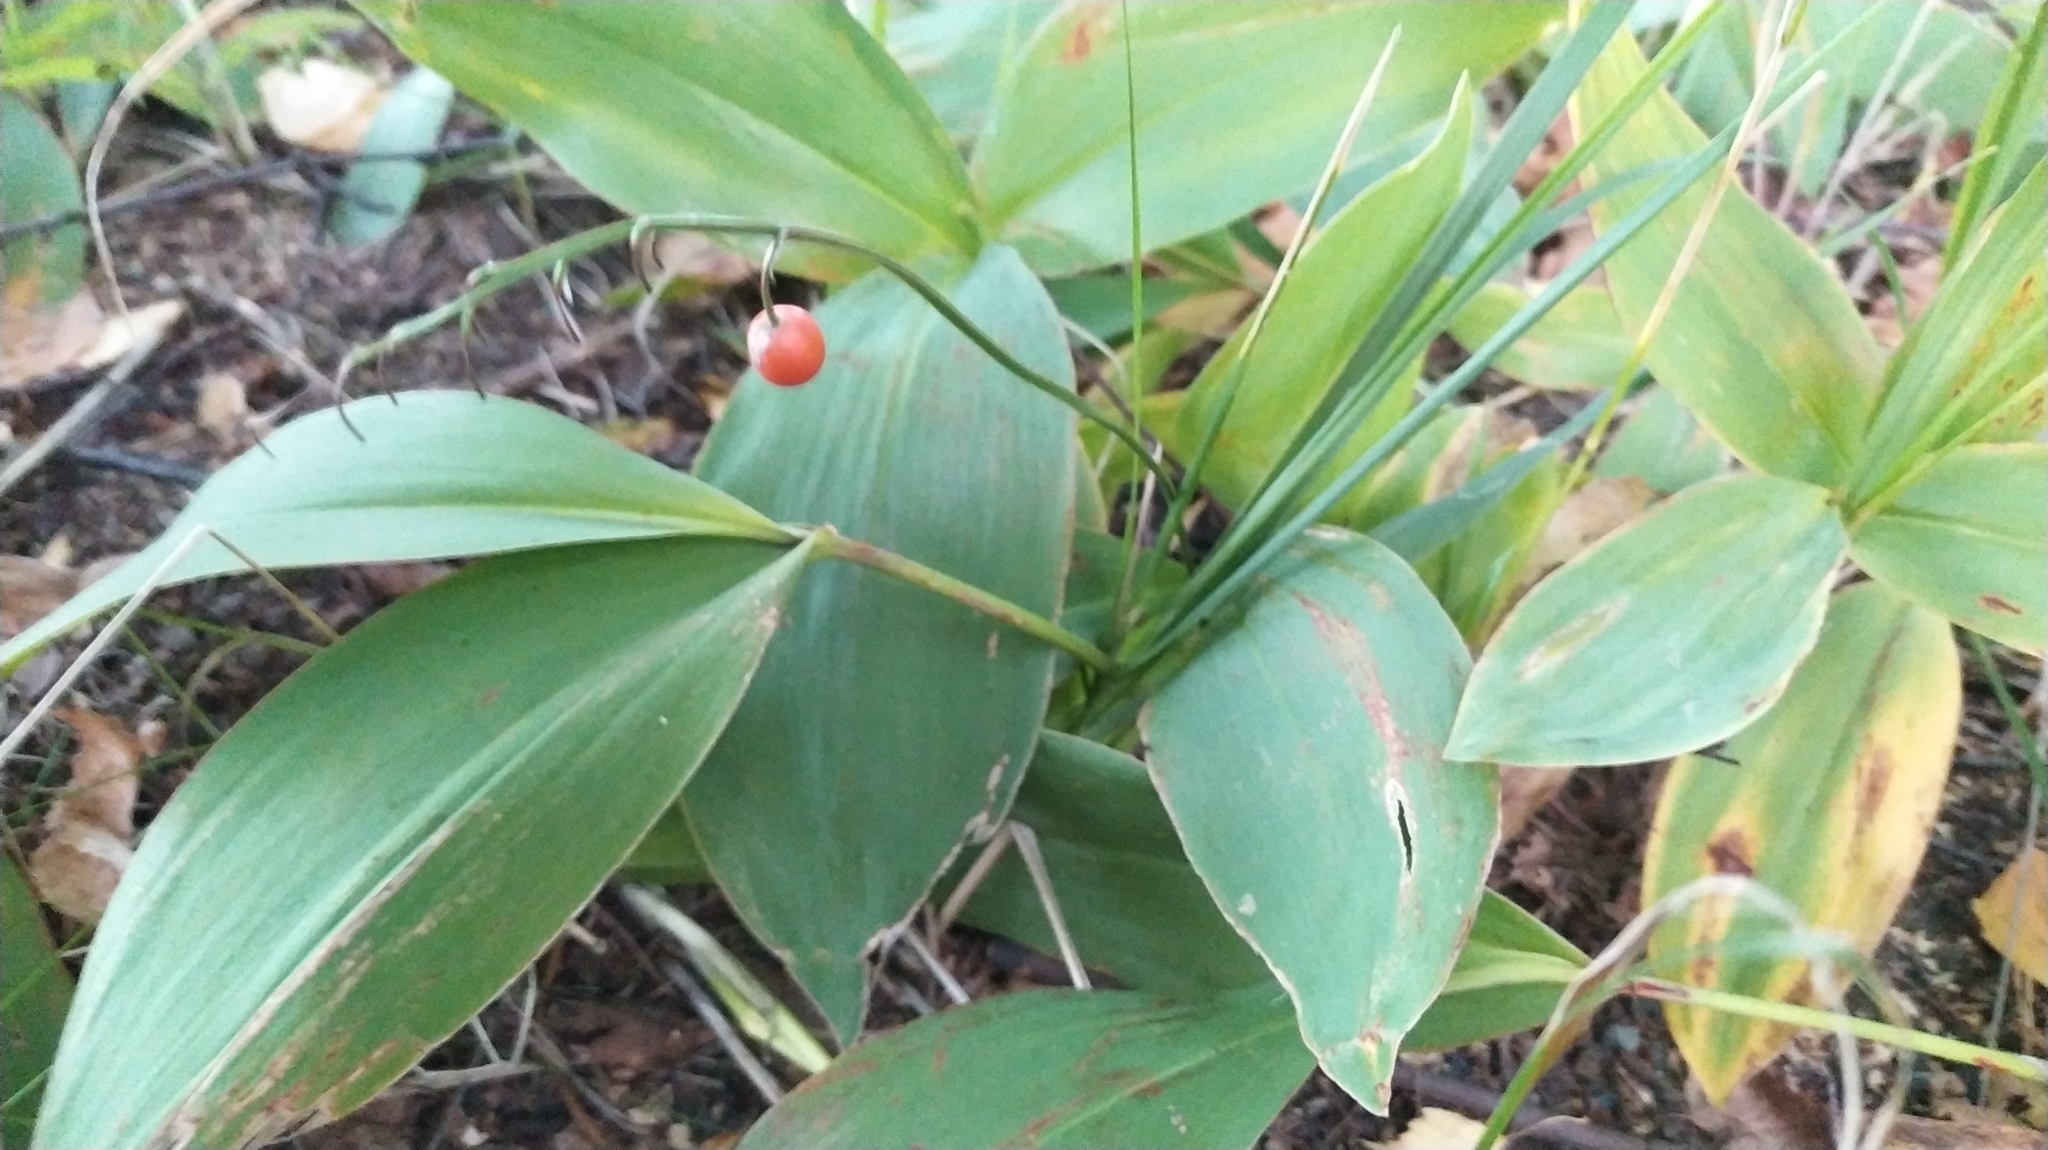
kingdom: Plantae
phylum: Tracheophyta
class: Liliopsida
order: Asparagales
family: Asparagaceae
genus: Convallaria
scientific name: Convallaria majalis
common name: Lily-of-the-valley
